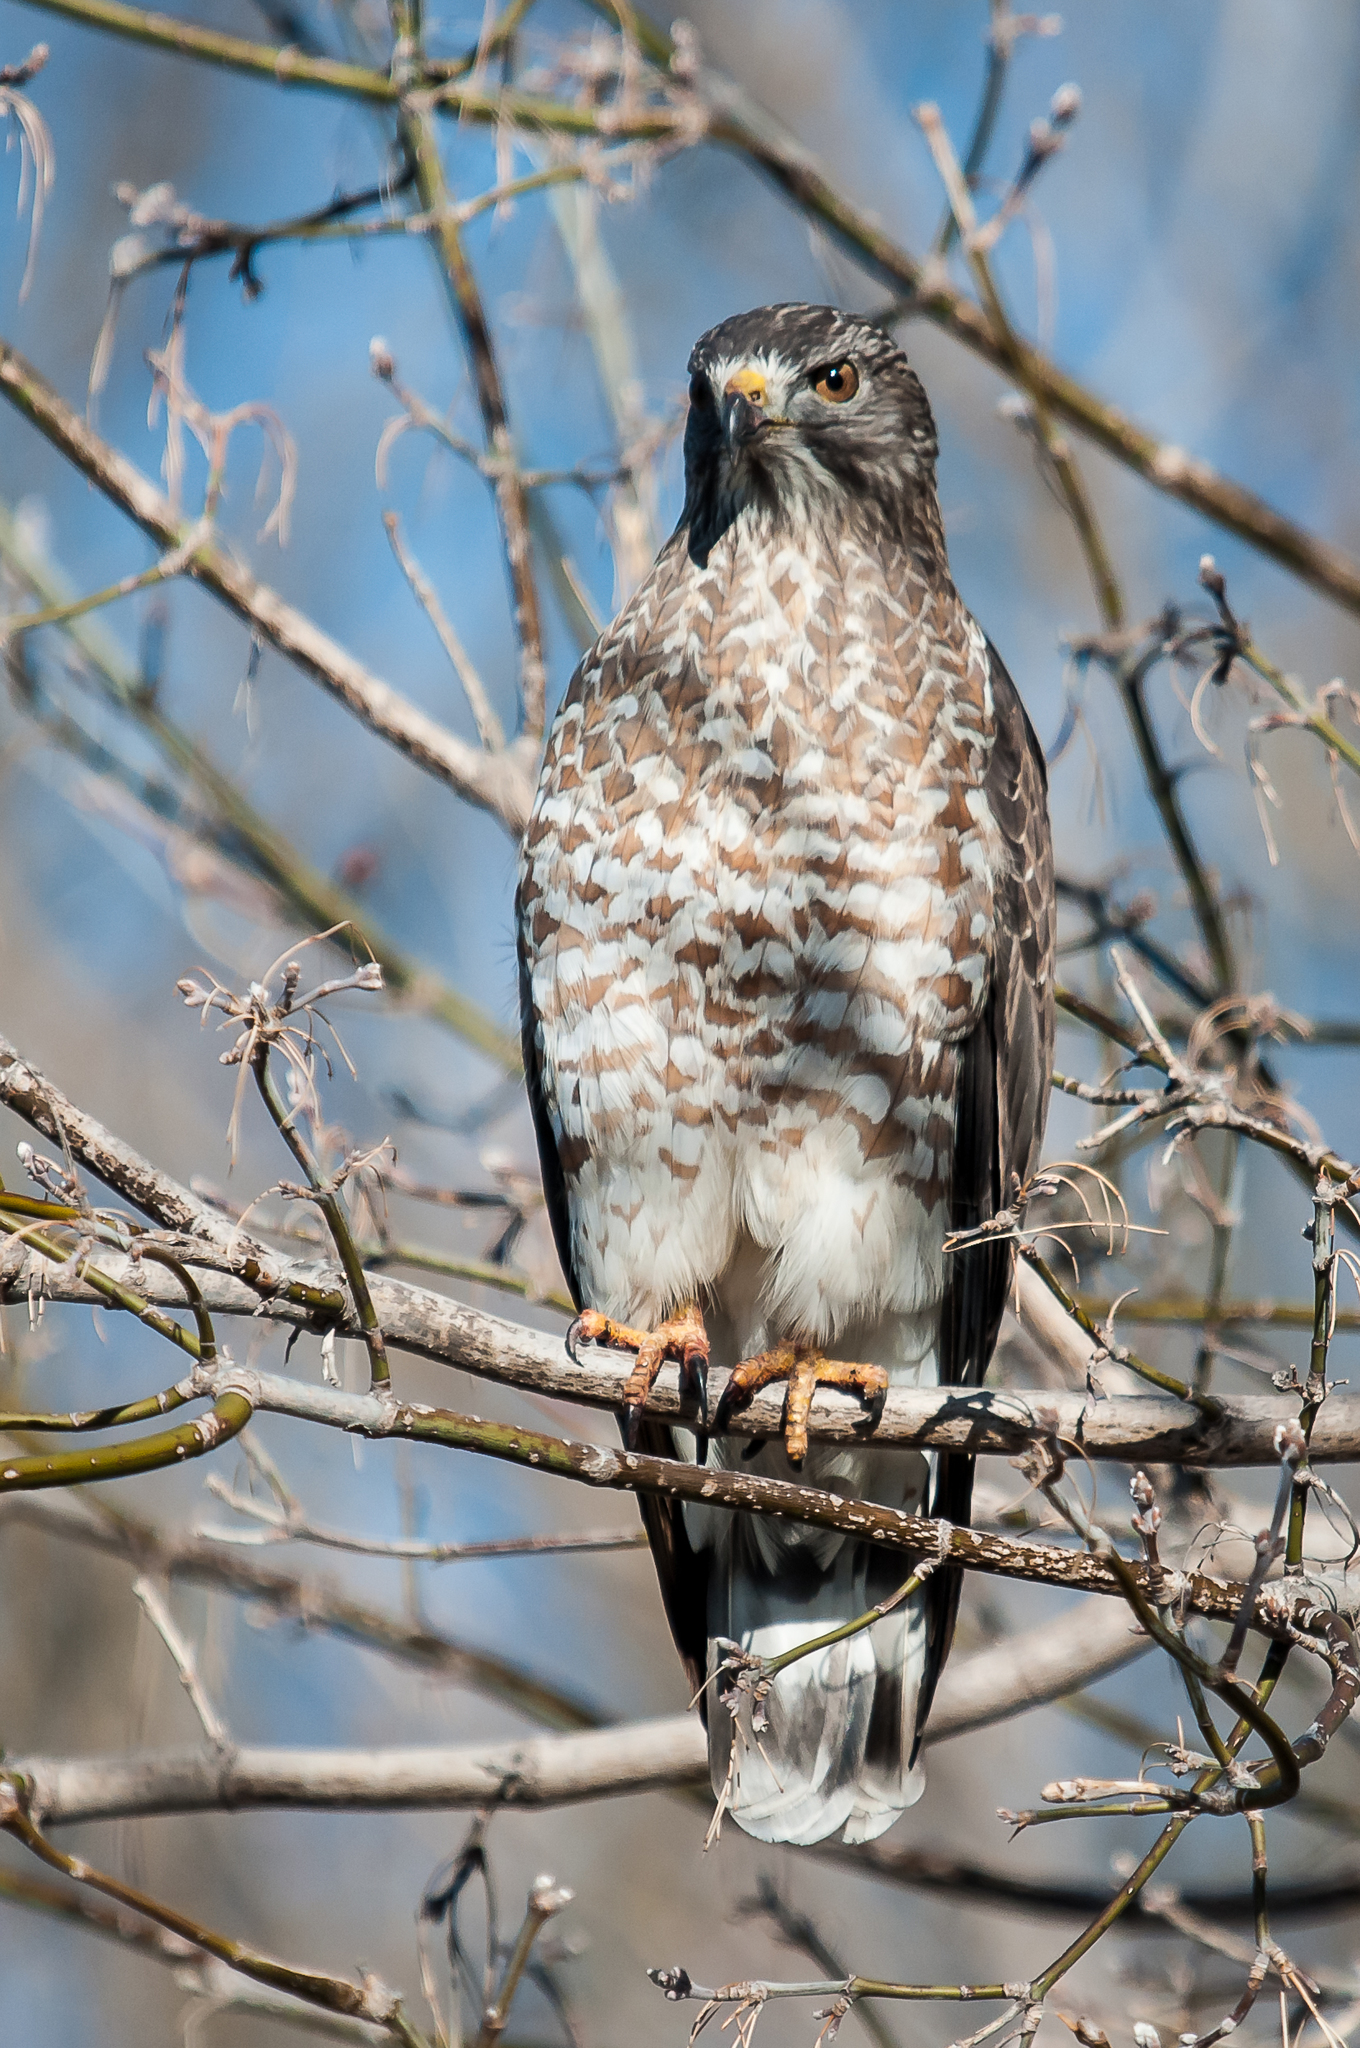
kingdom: Animalia
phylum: Chordata
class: Aves
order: Accipitriformes
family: Accipitridae
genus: Buteo
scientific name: Buteo platypterus
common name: Broad-winged hawk
